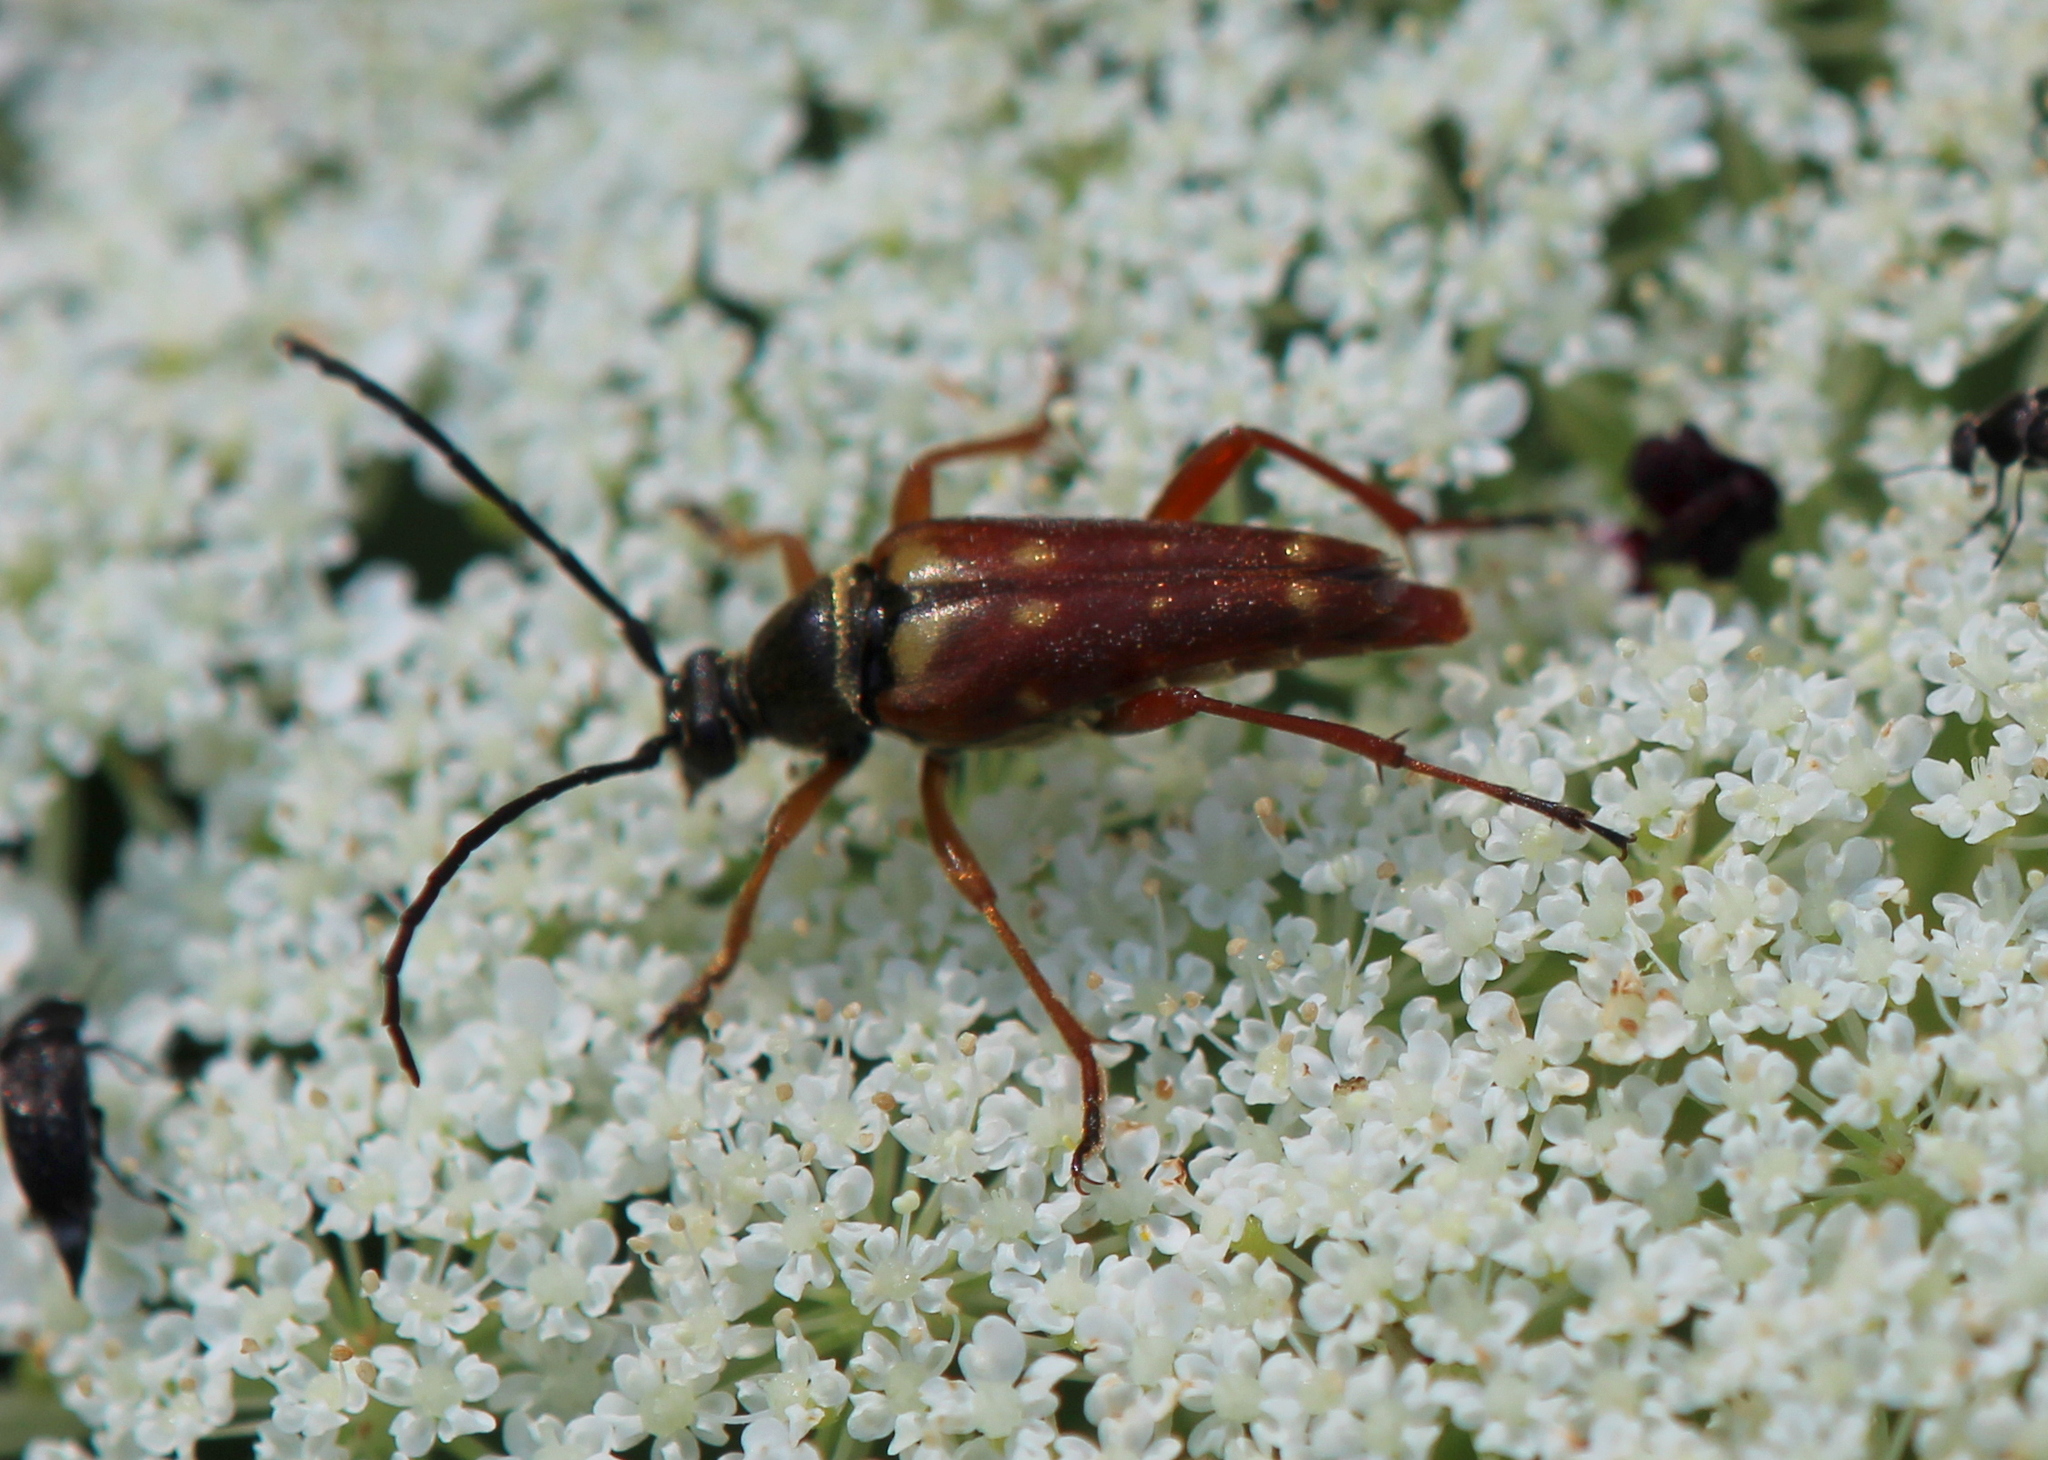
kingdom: Animalia
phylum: Arthropoda
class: Insecta
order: Coleoptera
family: Cerambycidae
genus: Typocerus
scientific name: Typocerus velutinus
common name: Banded longhorn beetle
